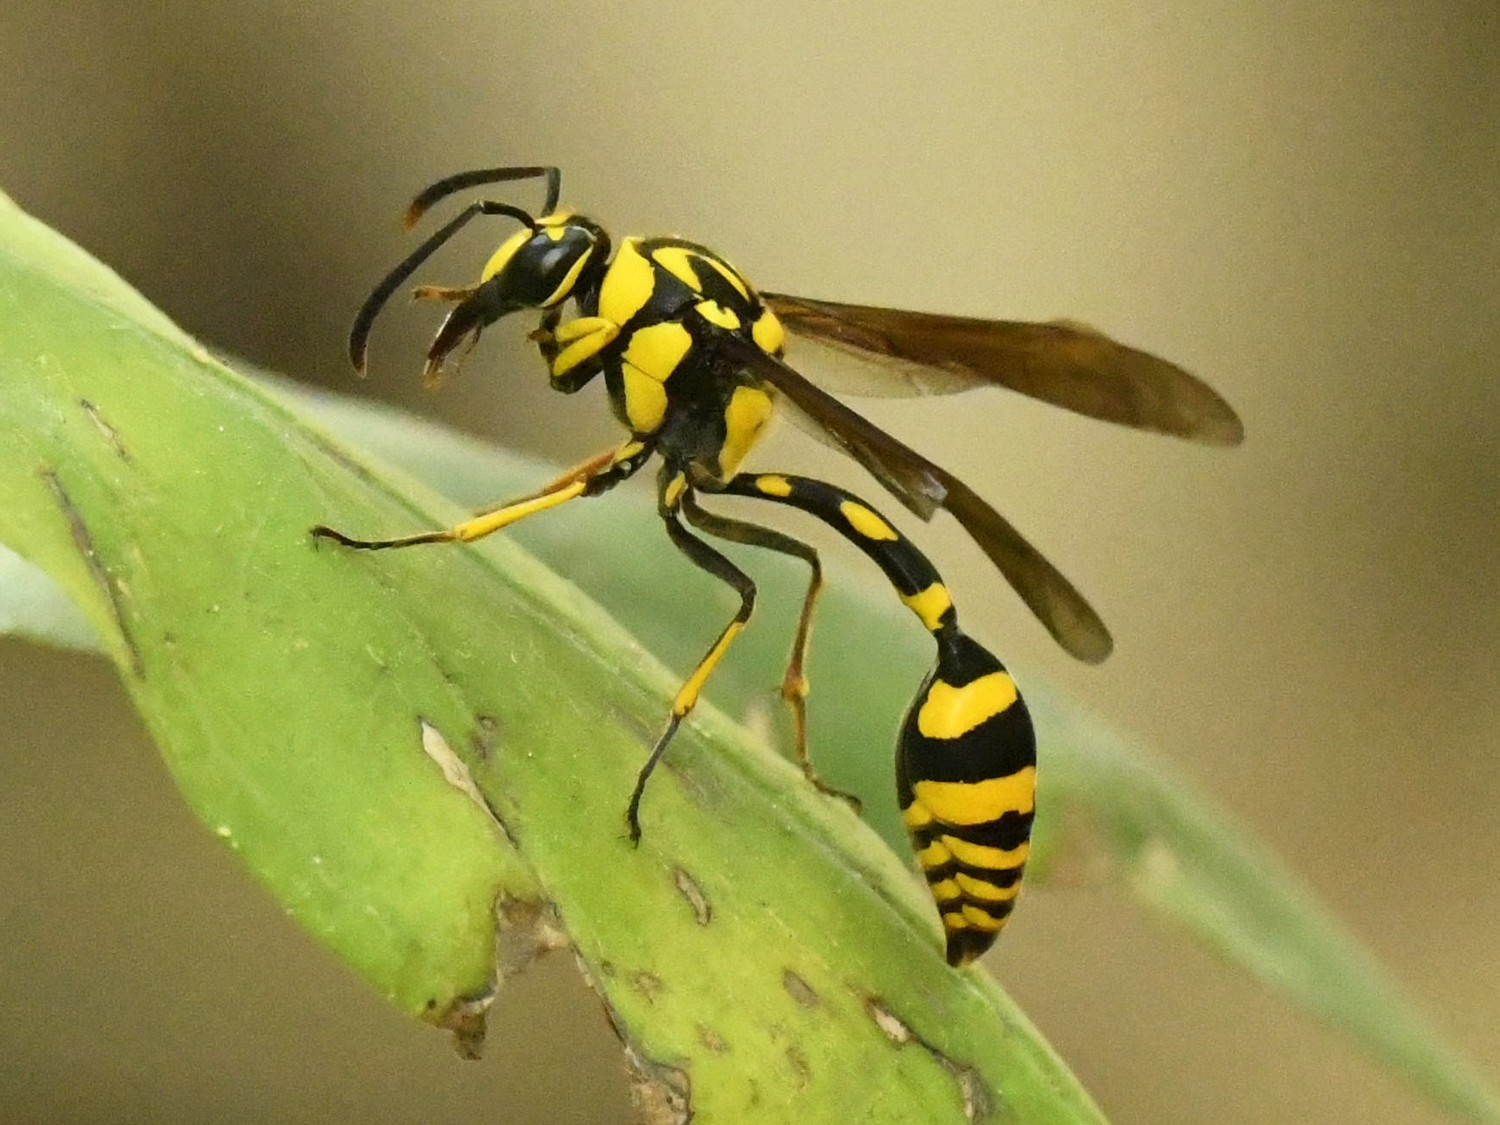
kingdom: Animalia
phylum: Arthropoda
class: Insecta
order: Hymenoptera
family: Eumenidae
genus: Phimenes
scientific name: Phimenes flavopictus
